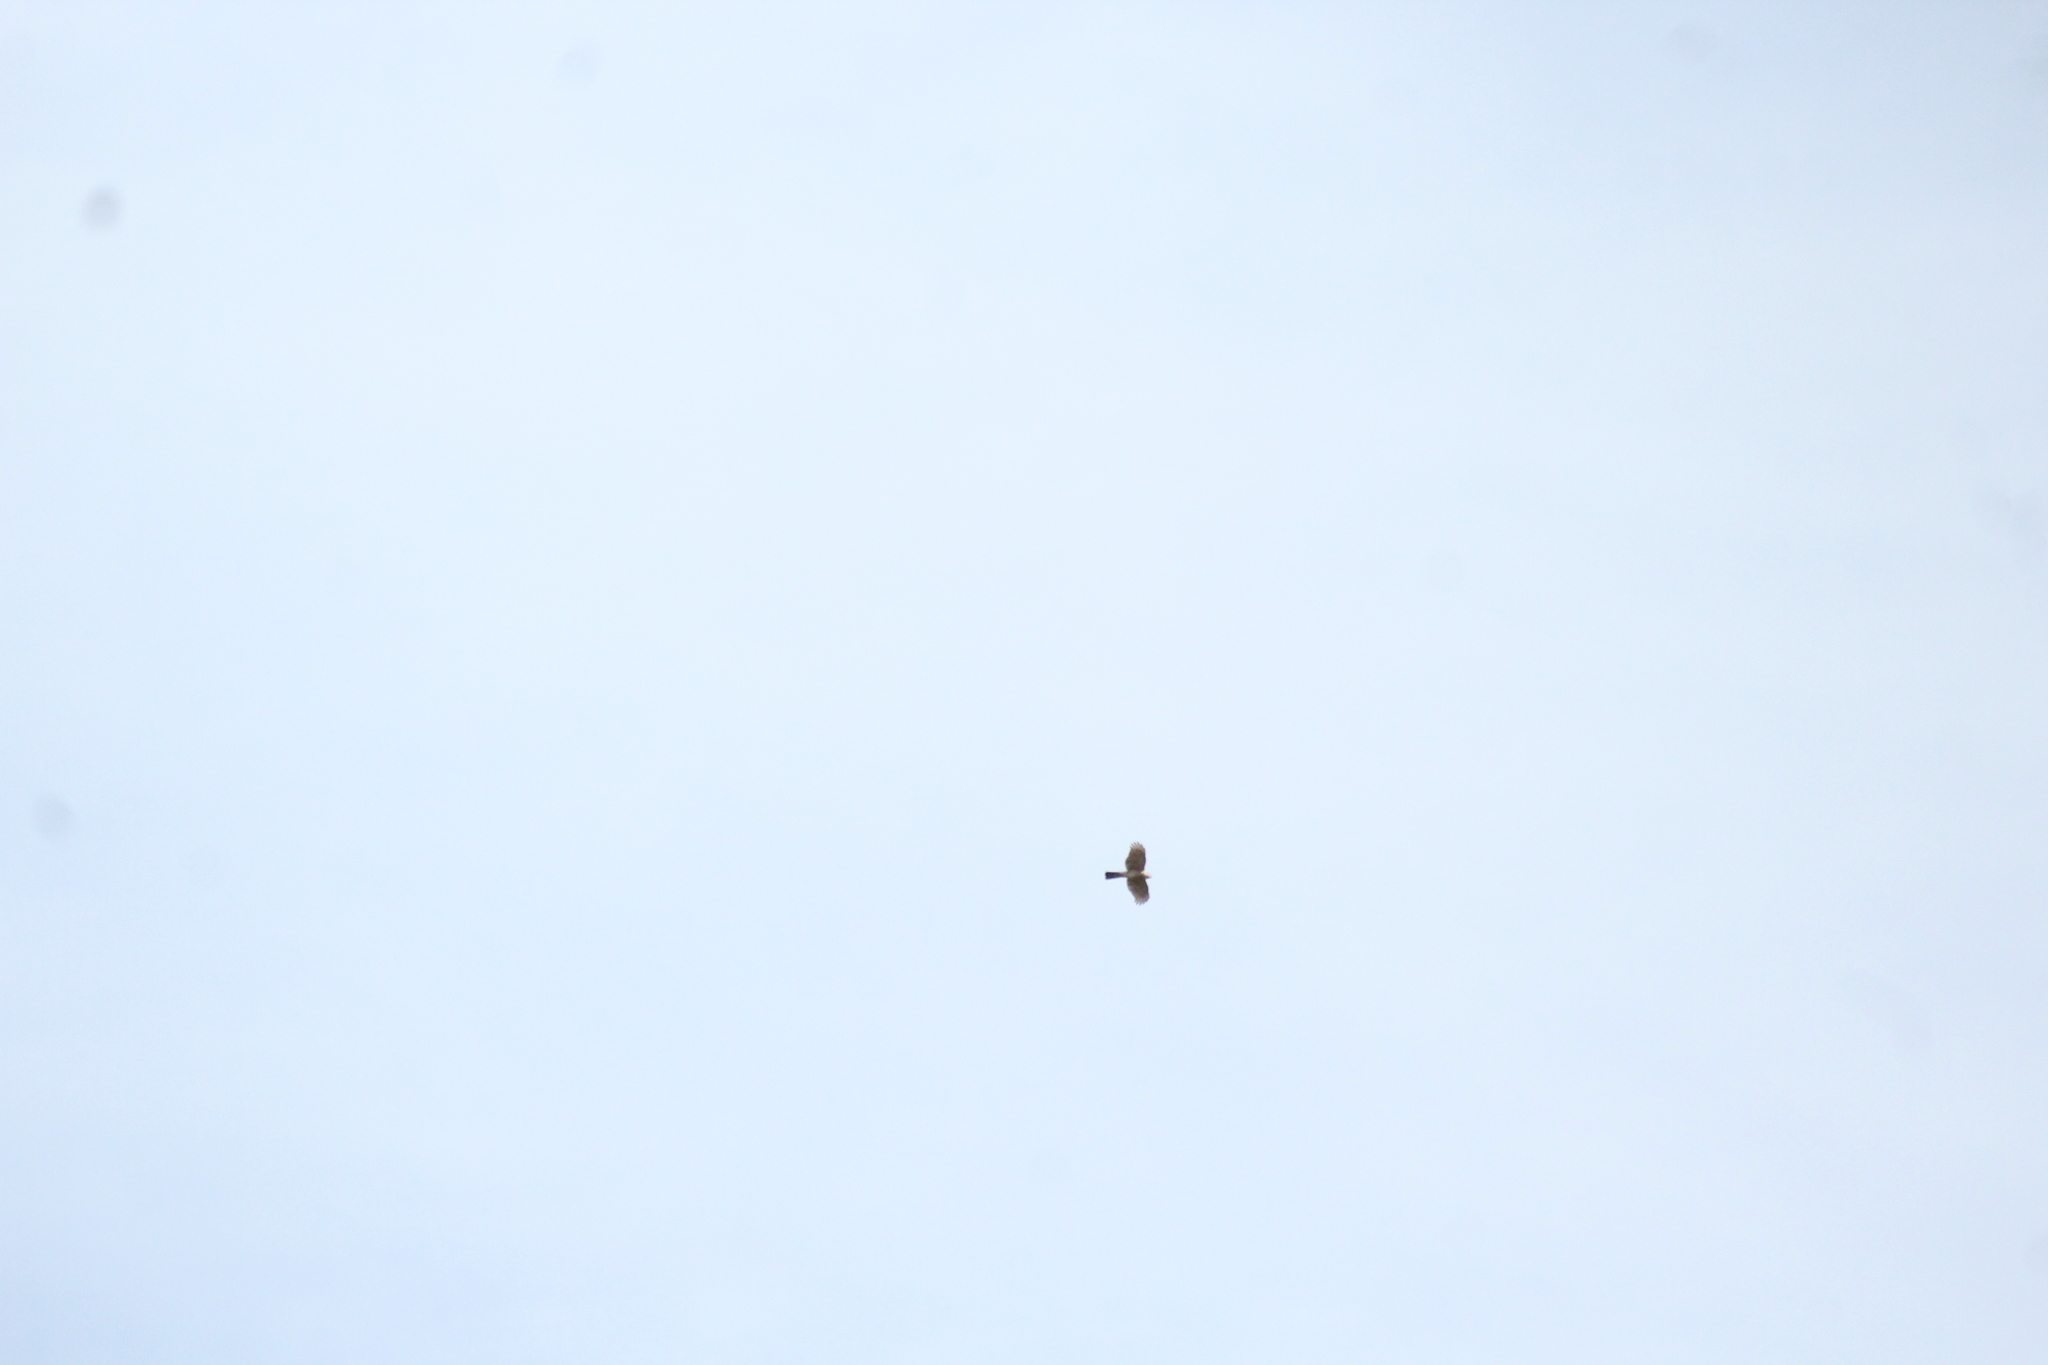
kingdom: Animalia
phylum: Chordata
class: Aves
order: Accipitriformes
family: Accipitridae
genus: Accipiter
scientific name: Accipiter striatus
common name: Sharp-shinned hawk
